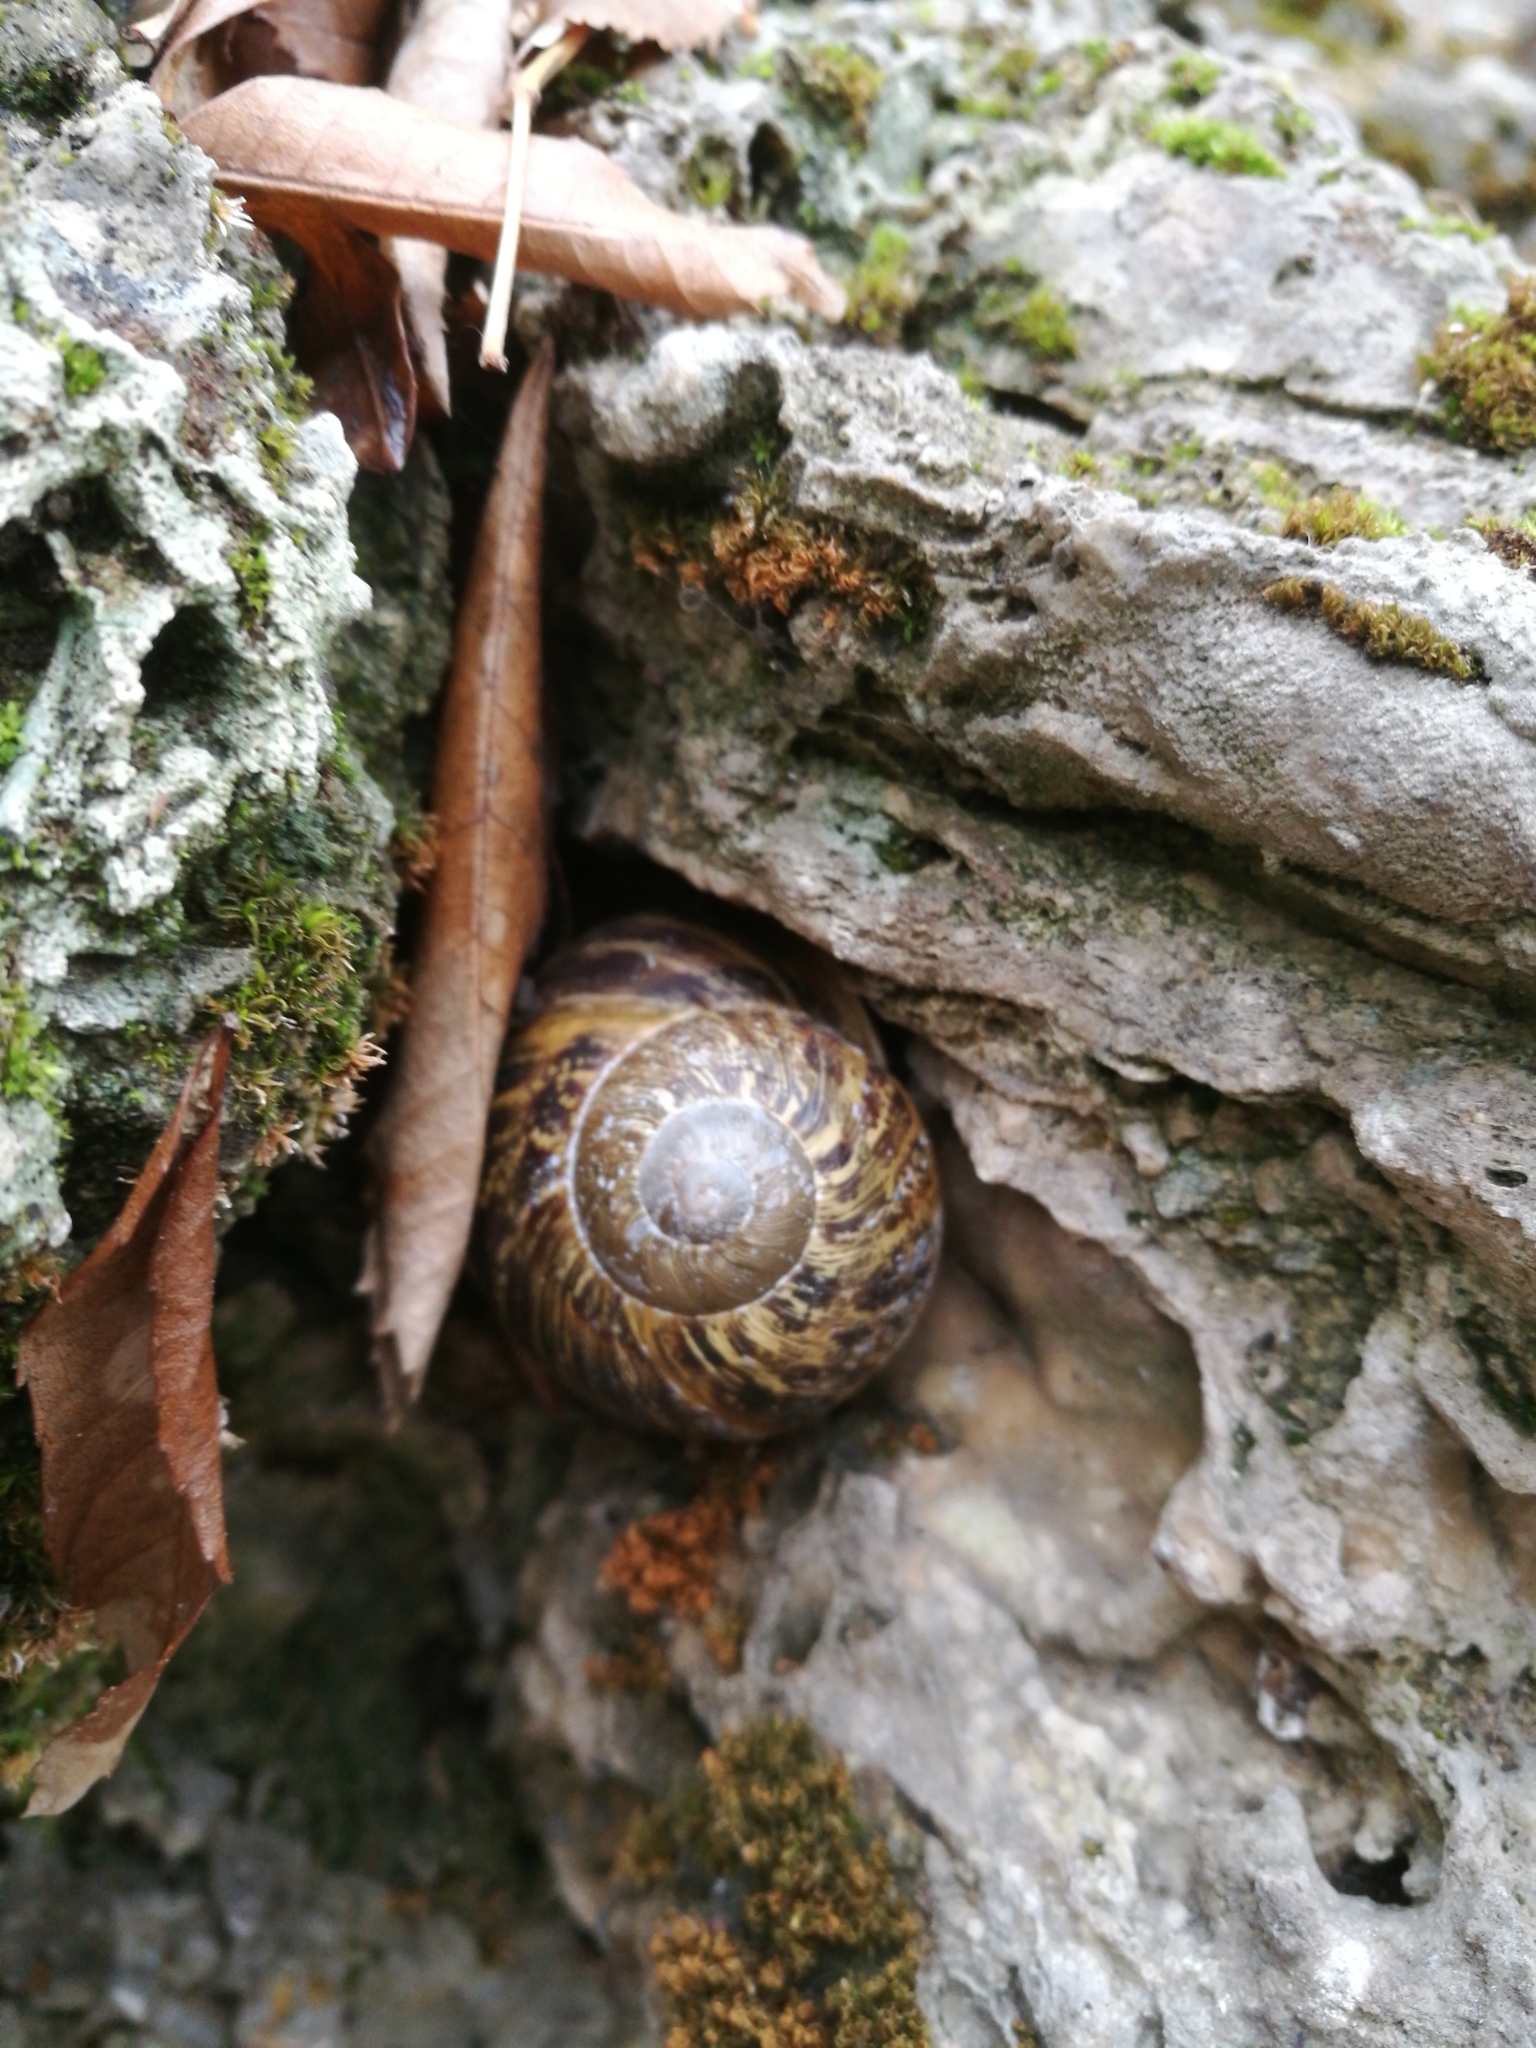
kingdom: Animalia
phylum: Mollusca
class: Gastropoda
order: Stylommatophora
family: Helicidae
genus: Cornu
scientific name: Cornu aspersum
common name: Brown garden snail
